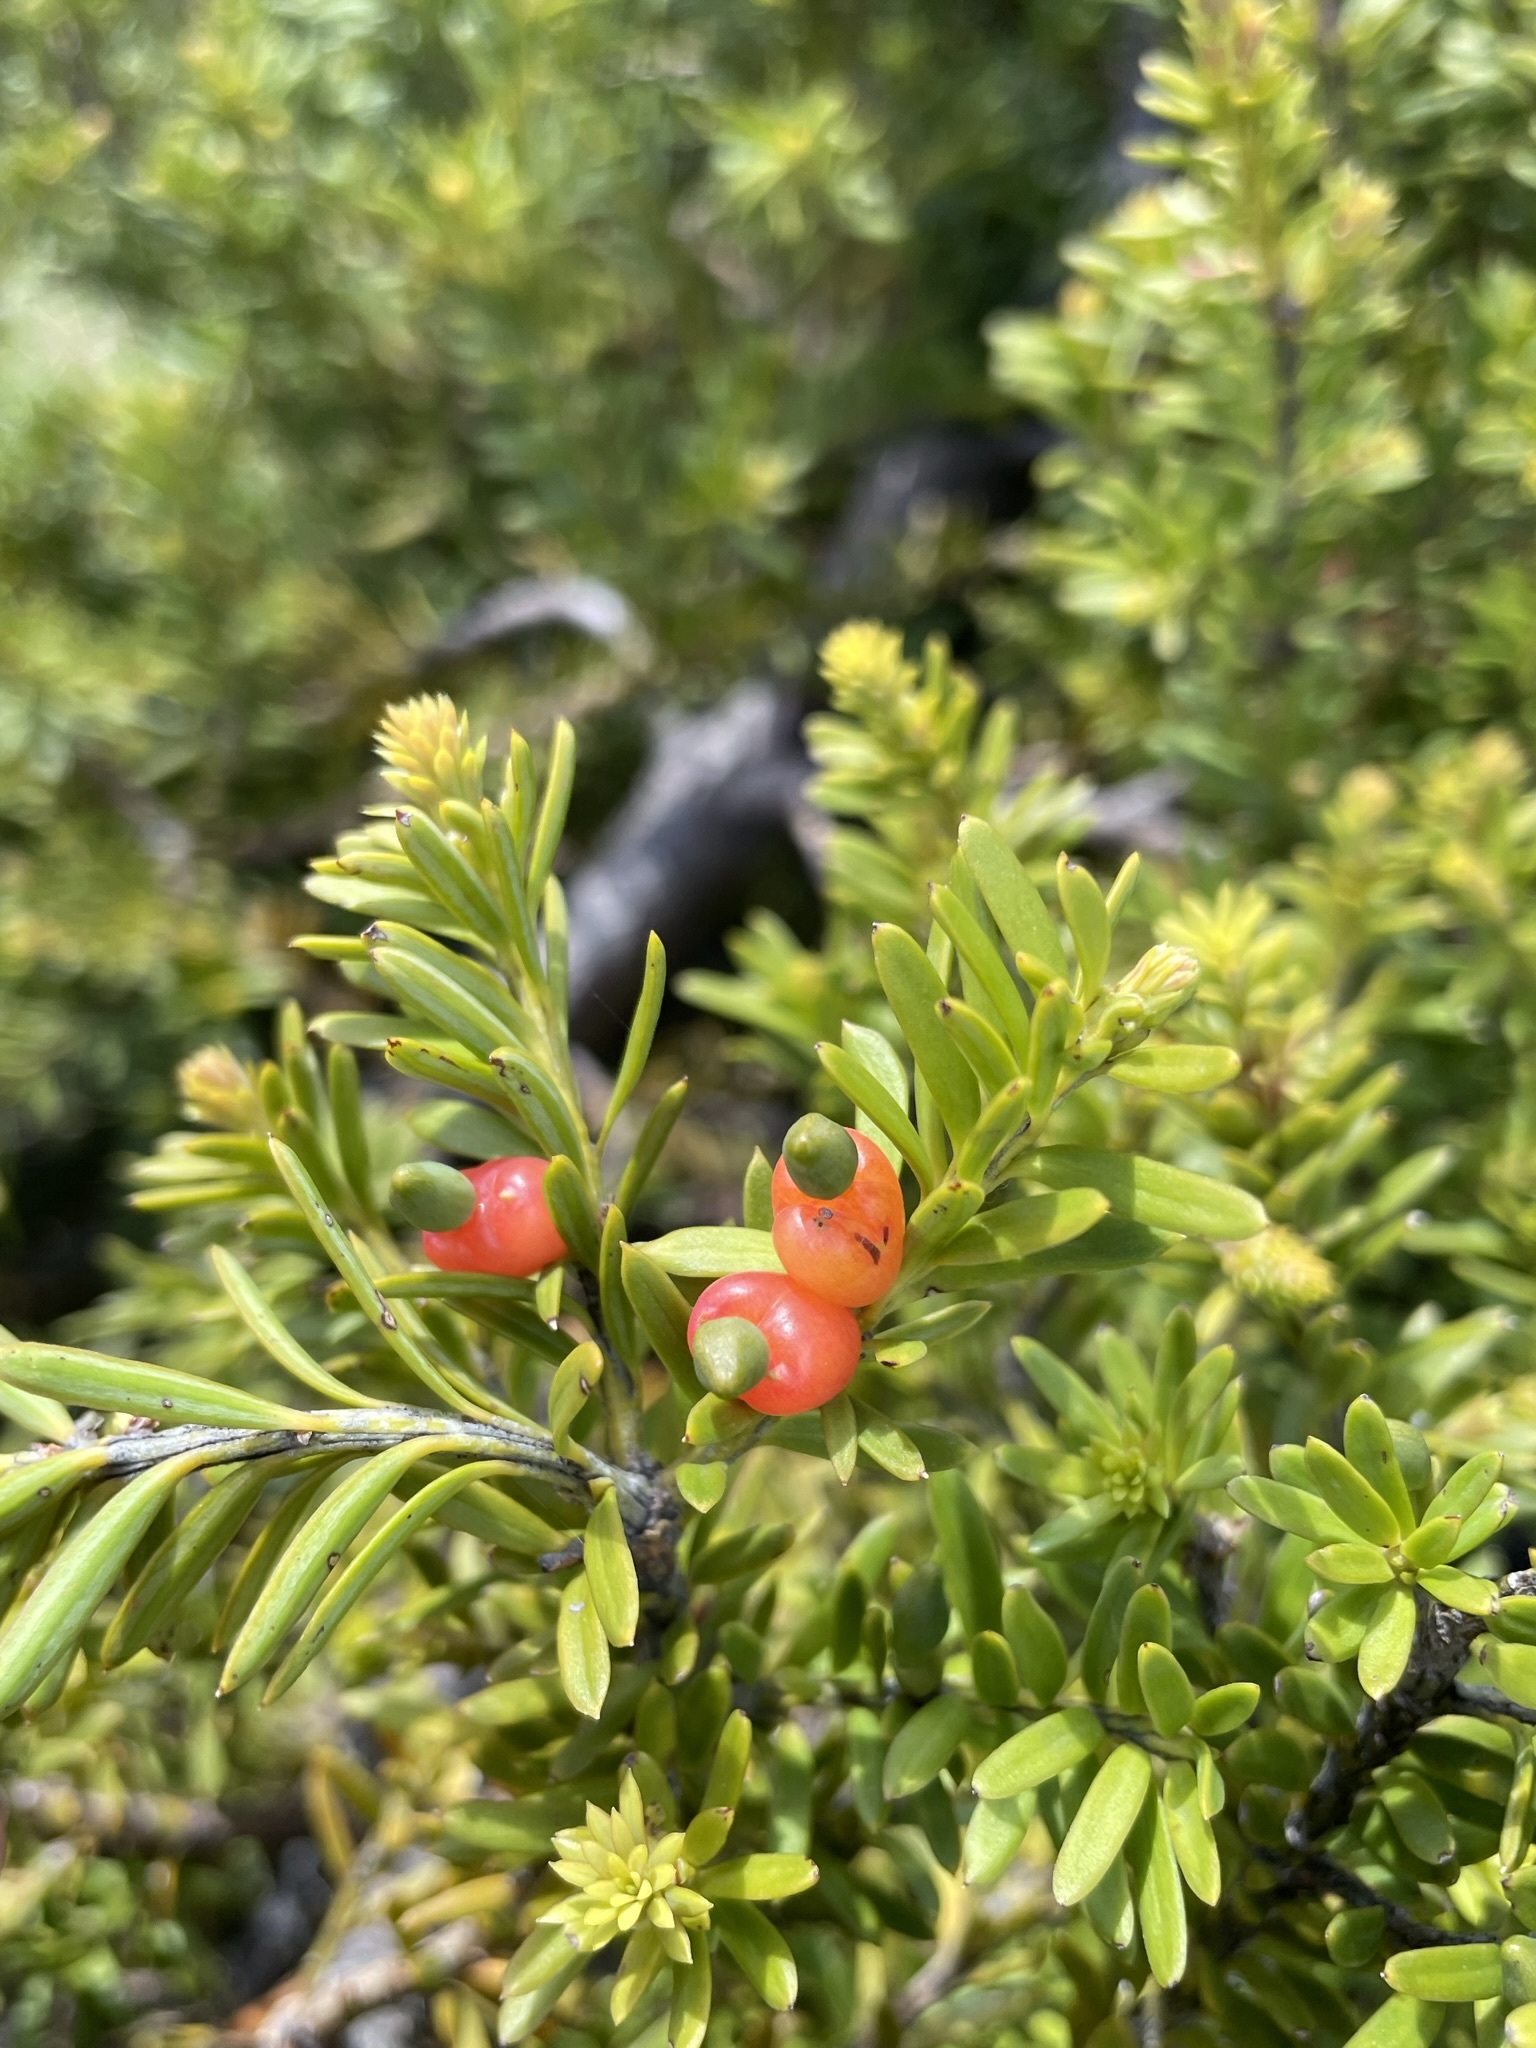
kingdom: Plantae
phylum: Tracheophyta
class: Pinopsida
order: Pinales
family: Podocarpaceae
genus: Podocarpus
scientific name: Podocarpus nivalis
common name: Alpine totara
